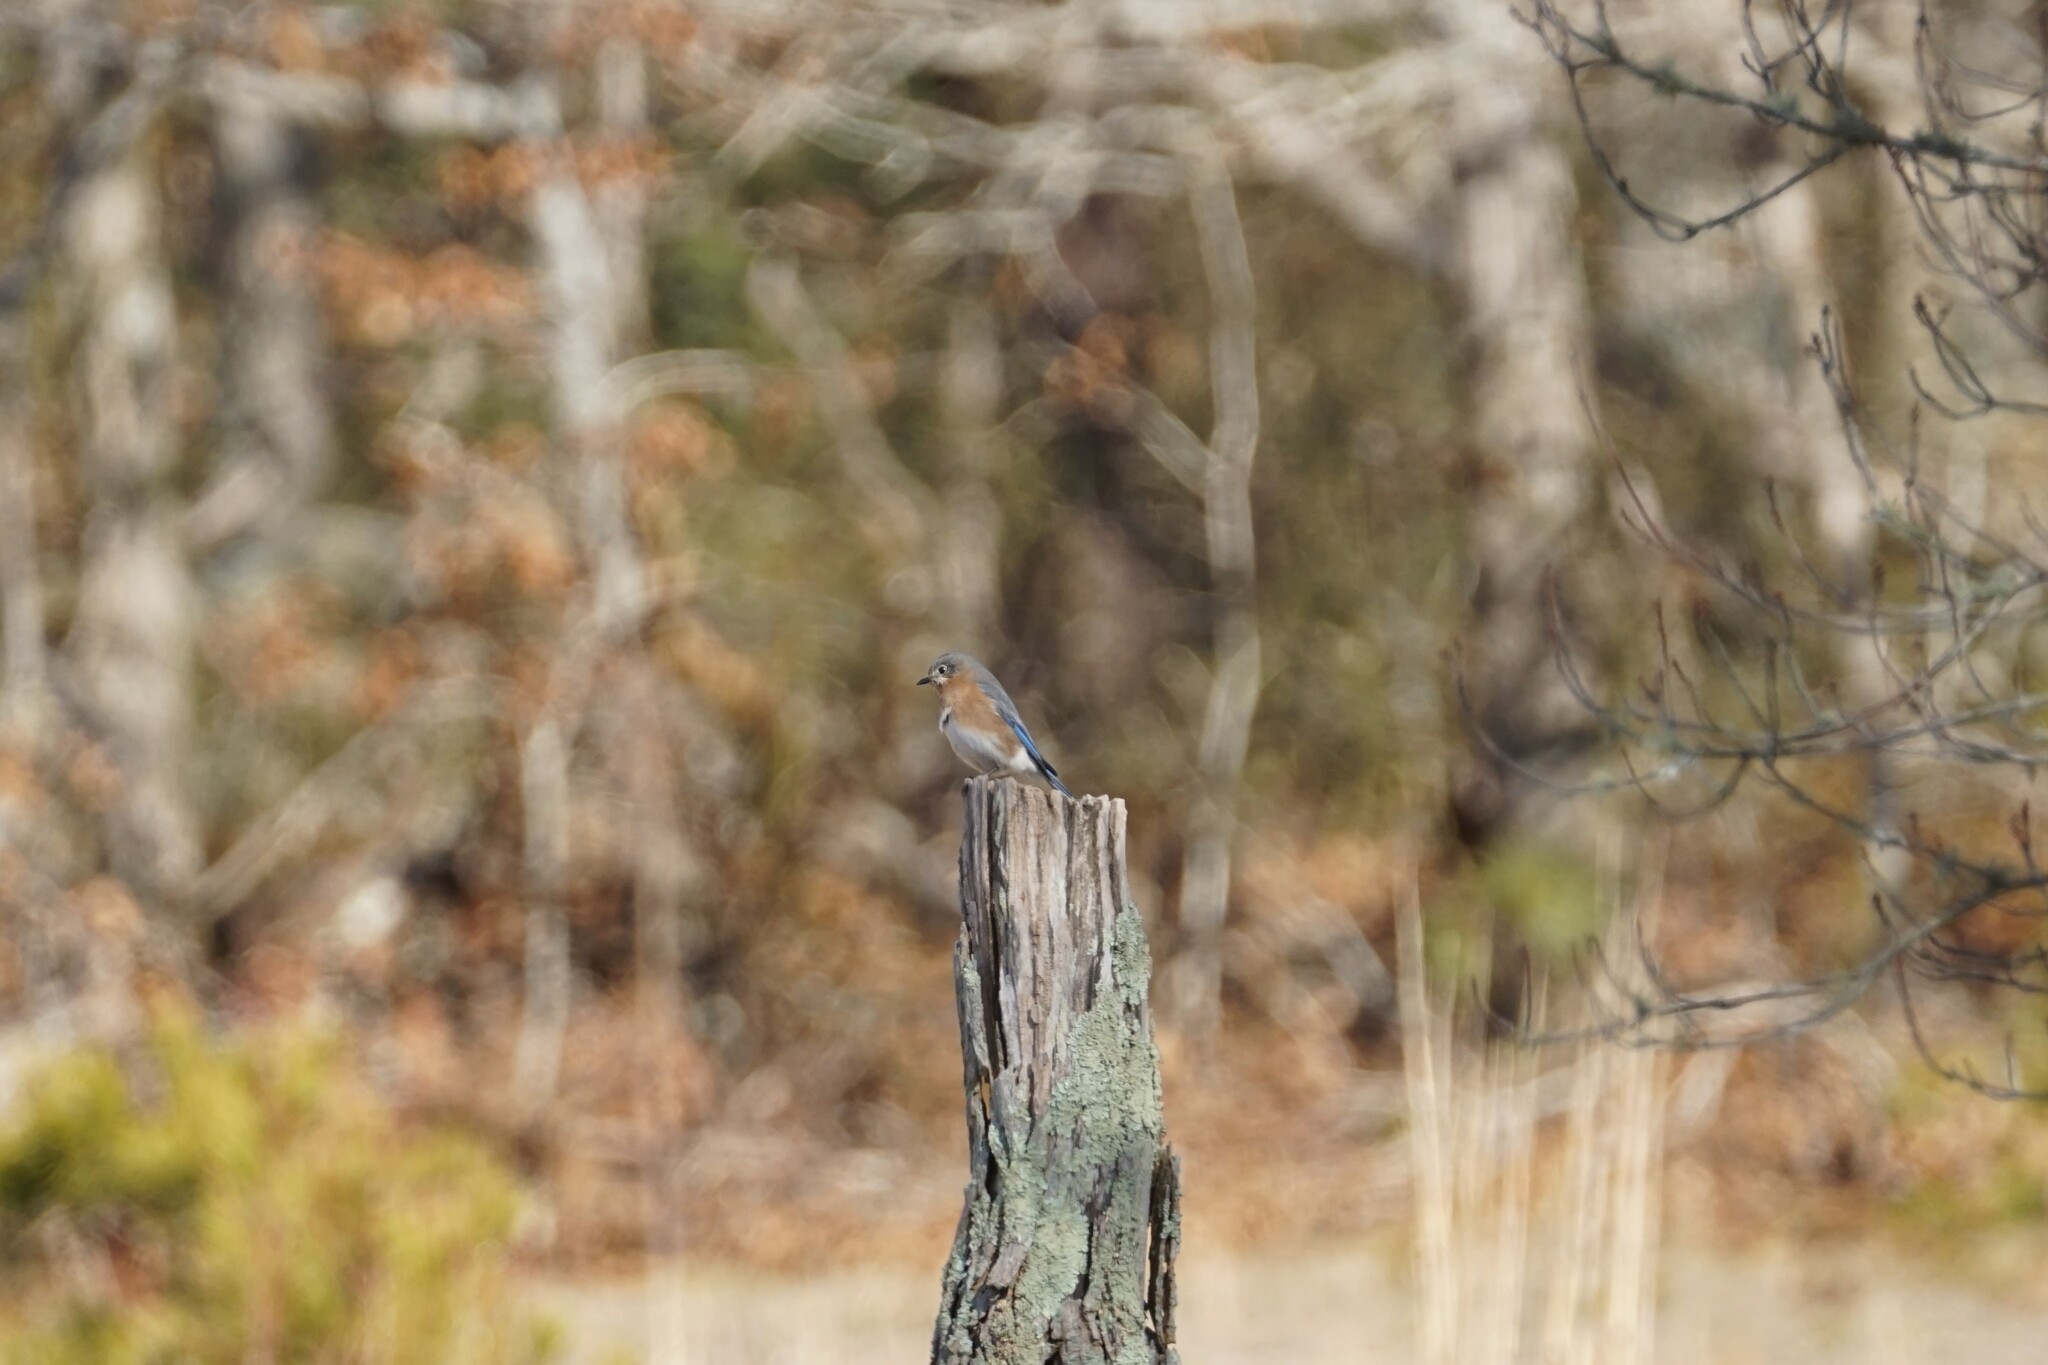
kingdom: Animalia
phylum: Chordata
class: Aves
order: Passeriformes
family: Turdidae
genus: Sialia
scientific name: Sialia sialis
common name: Eastern bluebird
